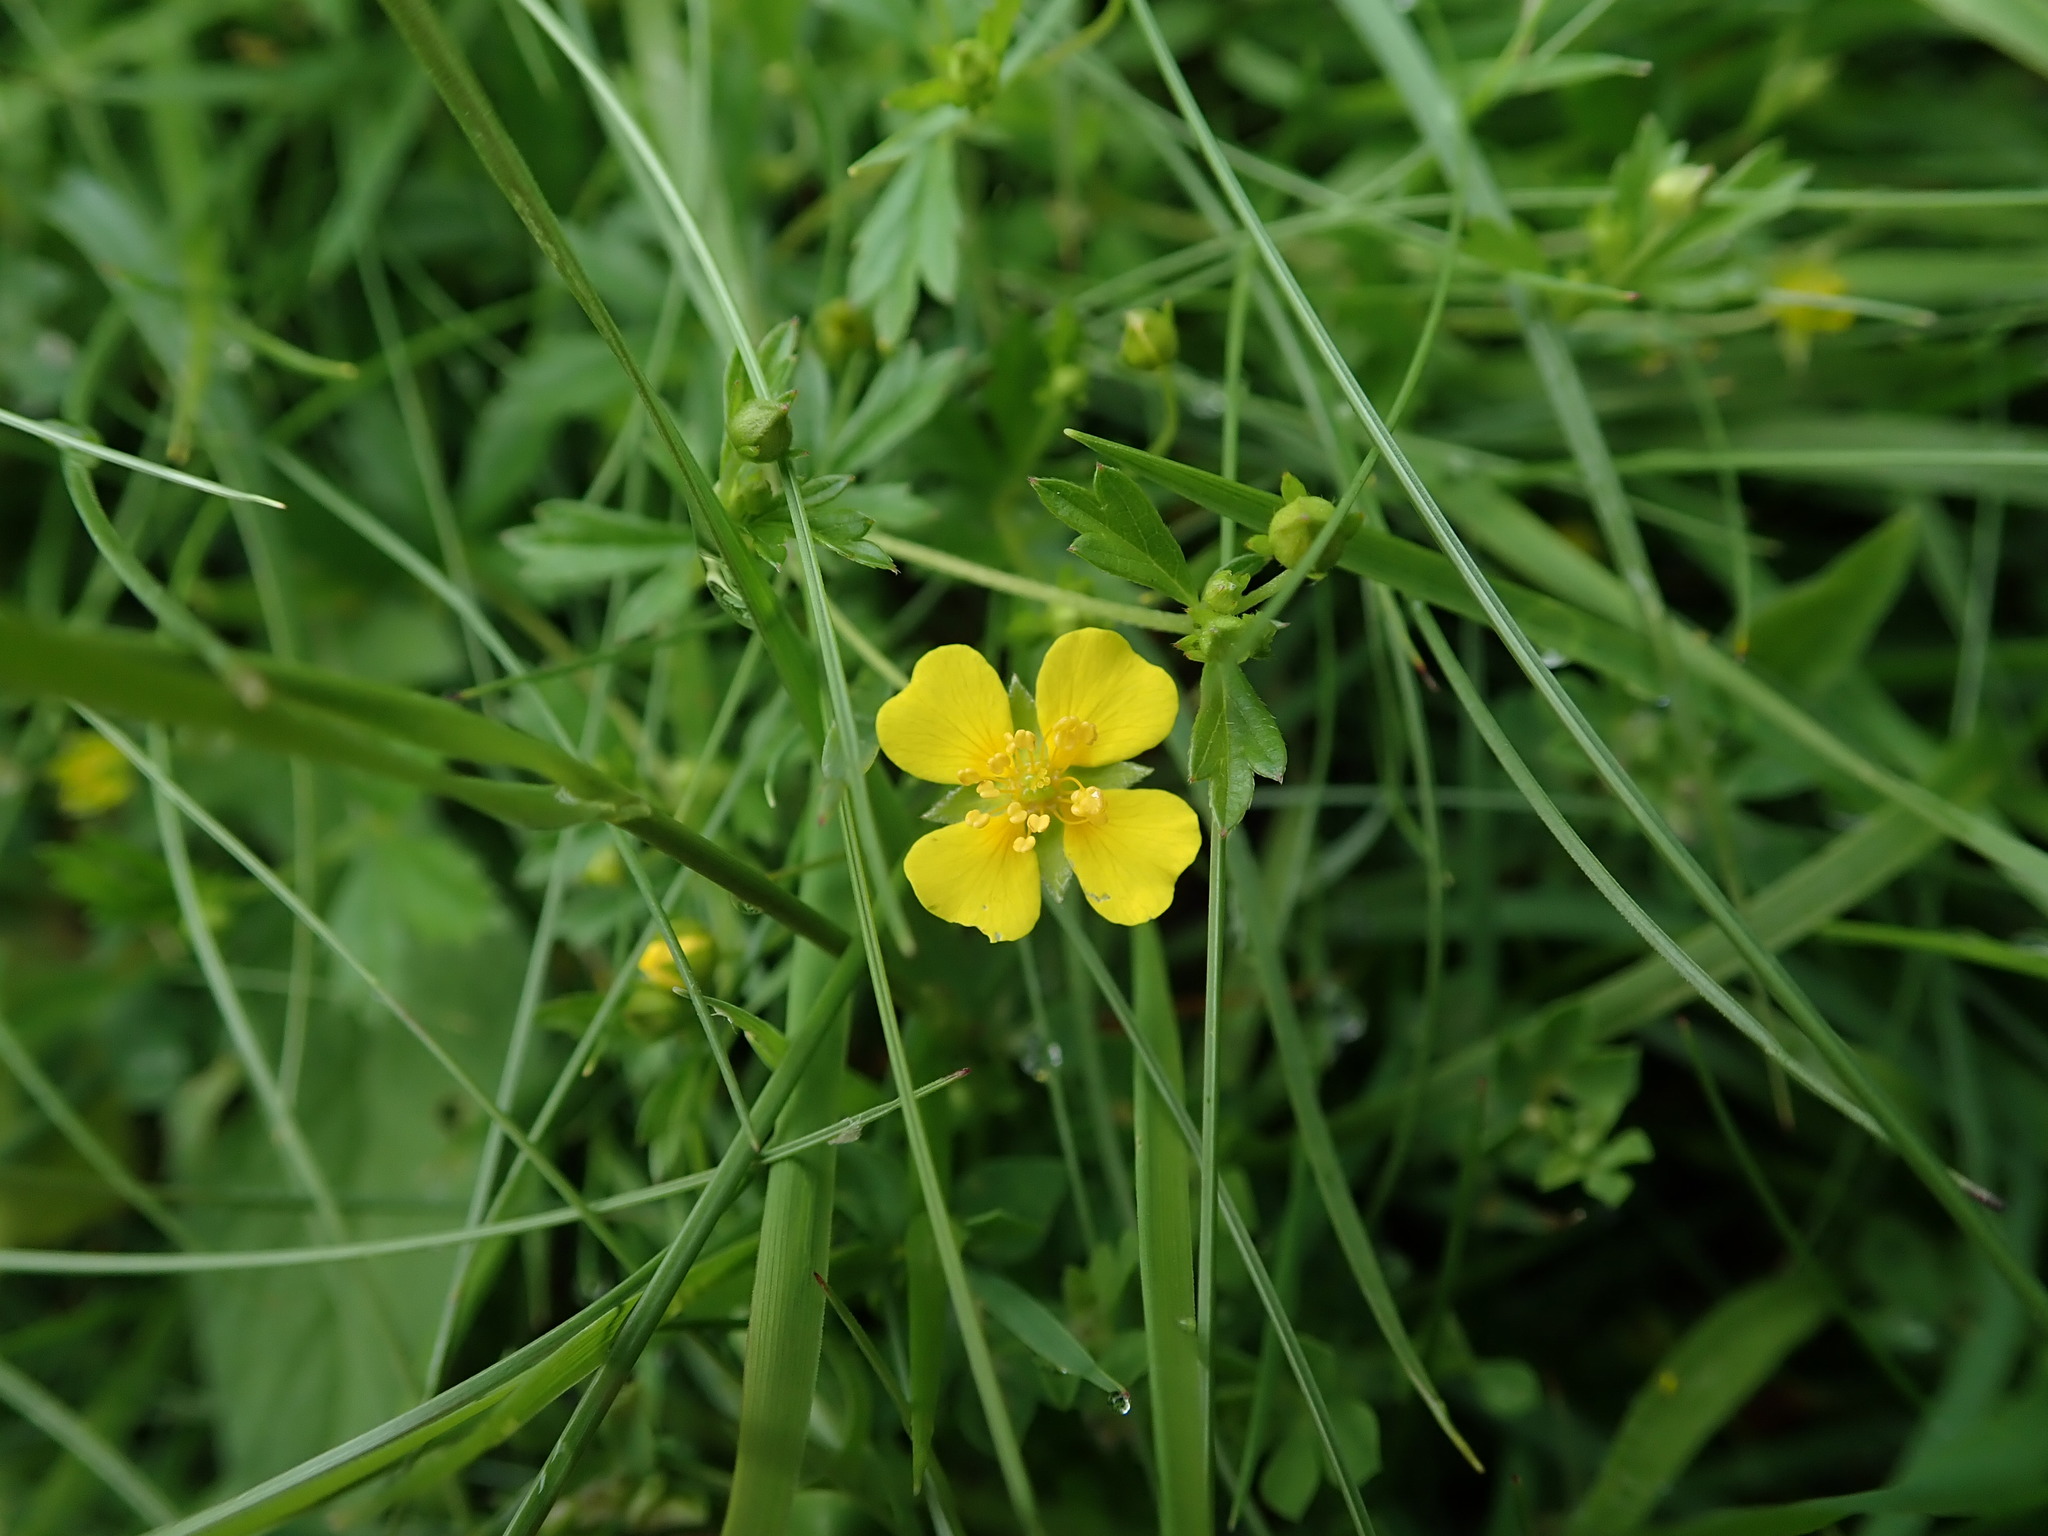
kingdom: Plantae
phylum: Tracheophyta
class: Magnoliopsida
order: Rosales
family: Rosaceae
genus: Potentilla
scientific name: Potentilla erecta
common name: Tormentil
